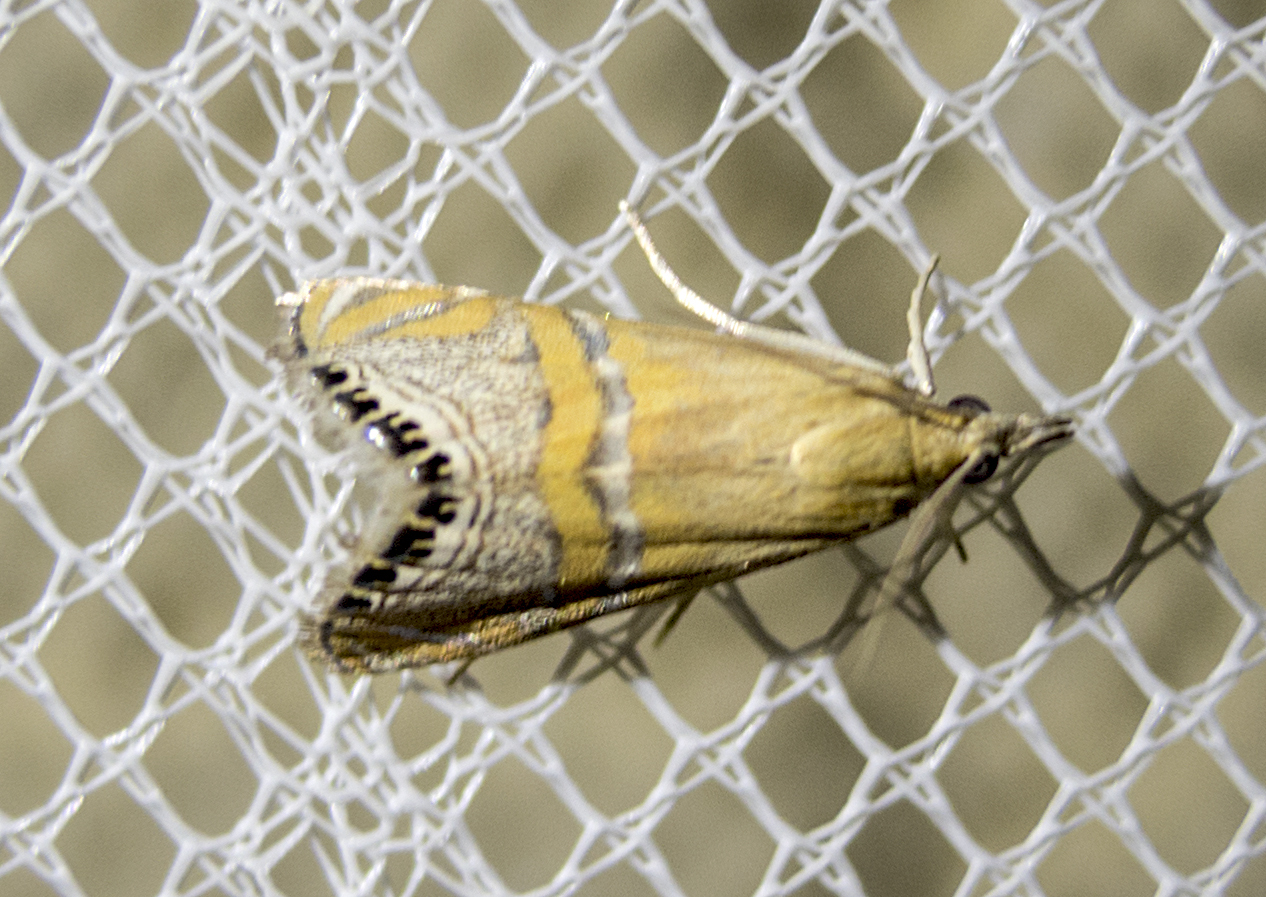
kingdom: Animalia
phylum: Arthropoda
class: Insecta
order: Lepidoptera
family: Crambidae
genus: Euchromius
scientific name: Euchromius bella
